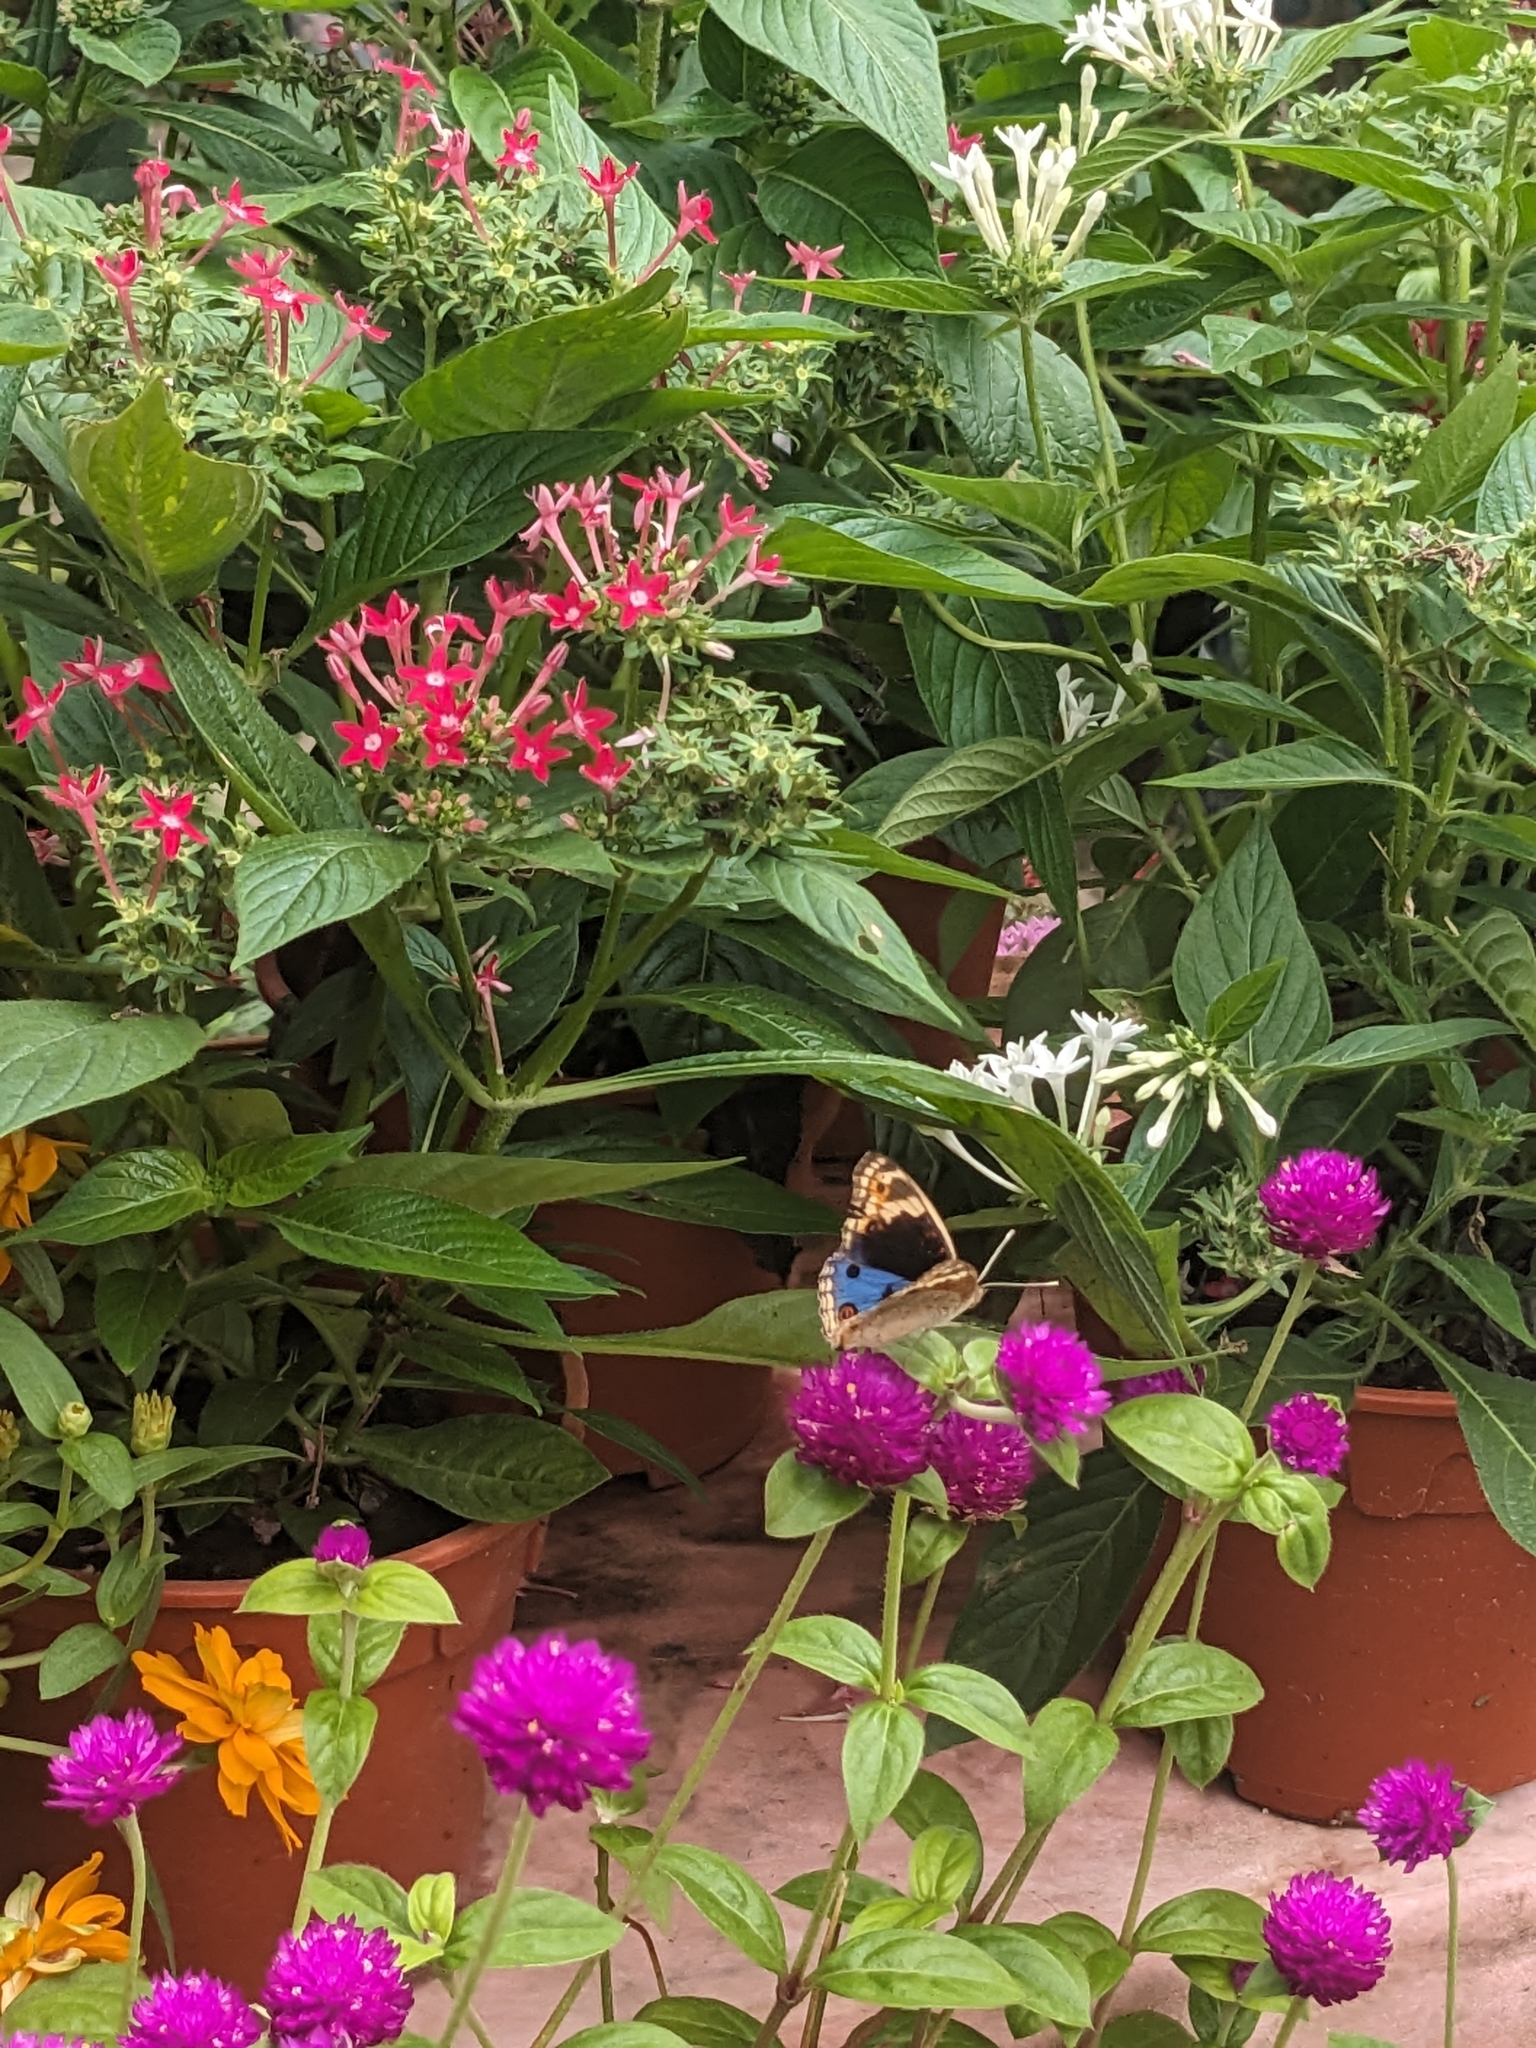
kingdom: Animalia
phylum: Arthropoda
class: Insecta
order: Lepidoptera
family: Nymphalidae
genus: Junonia
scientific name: Junonia orithya
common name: Blue pansy
